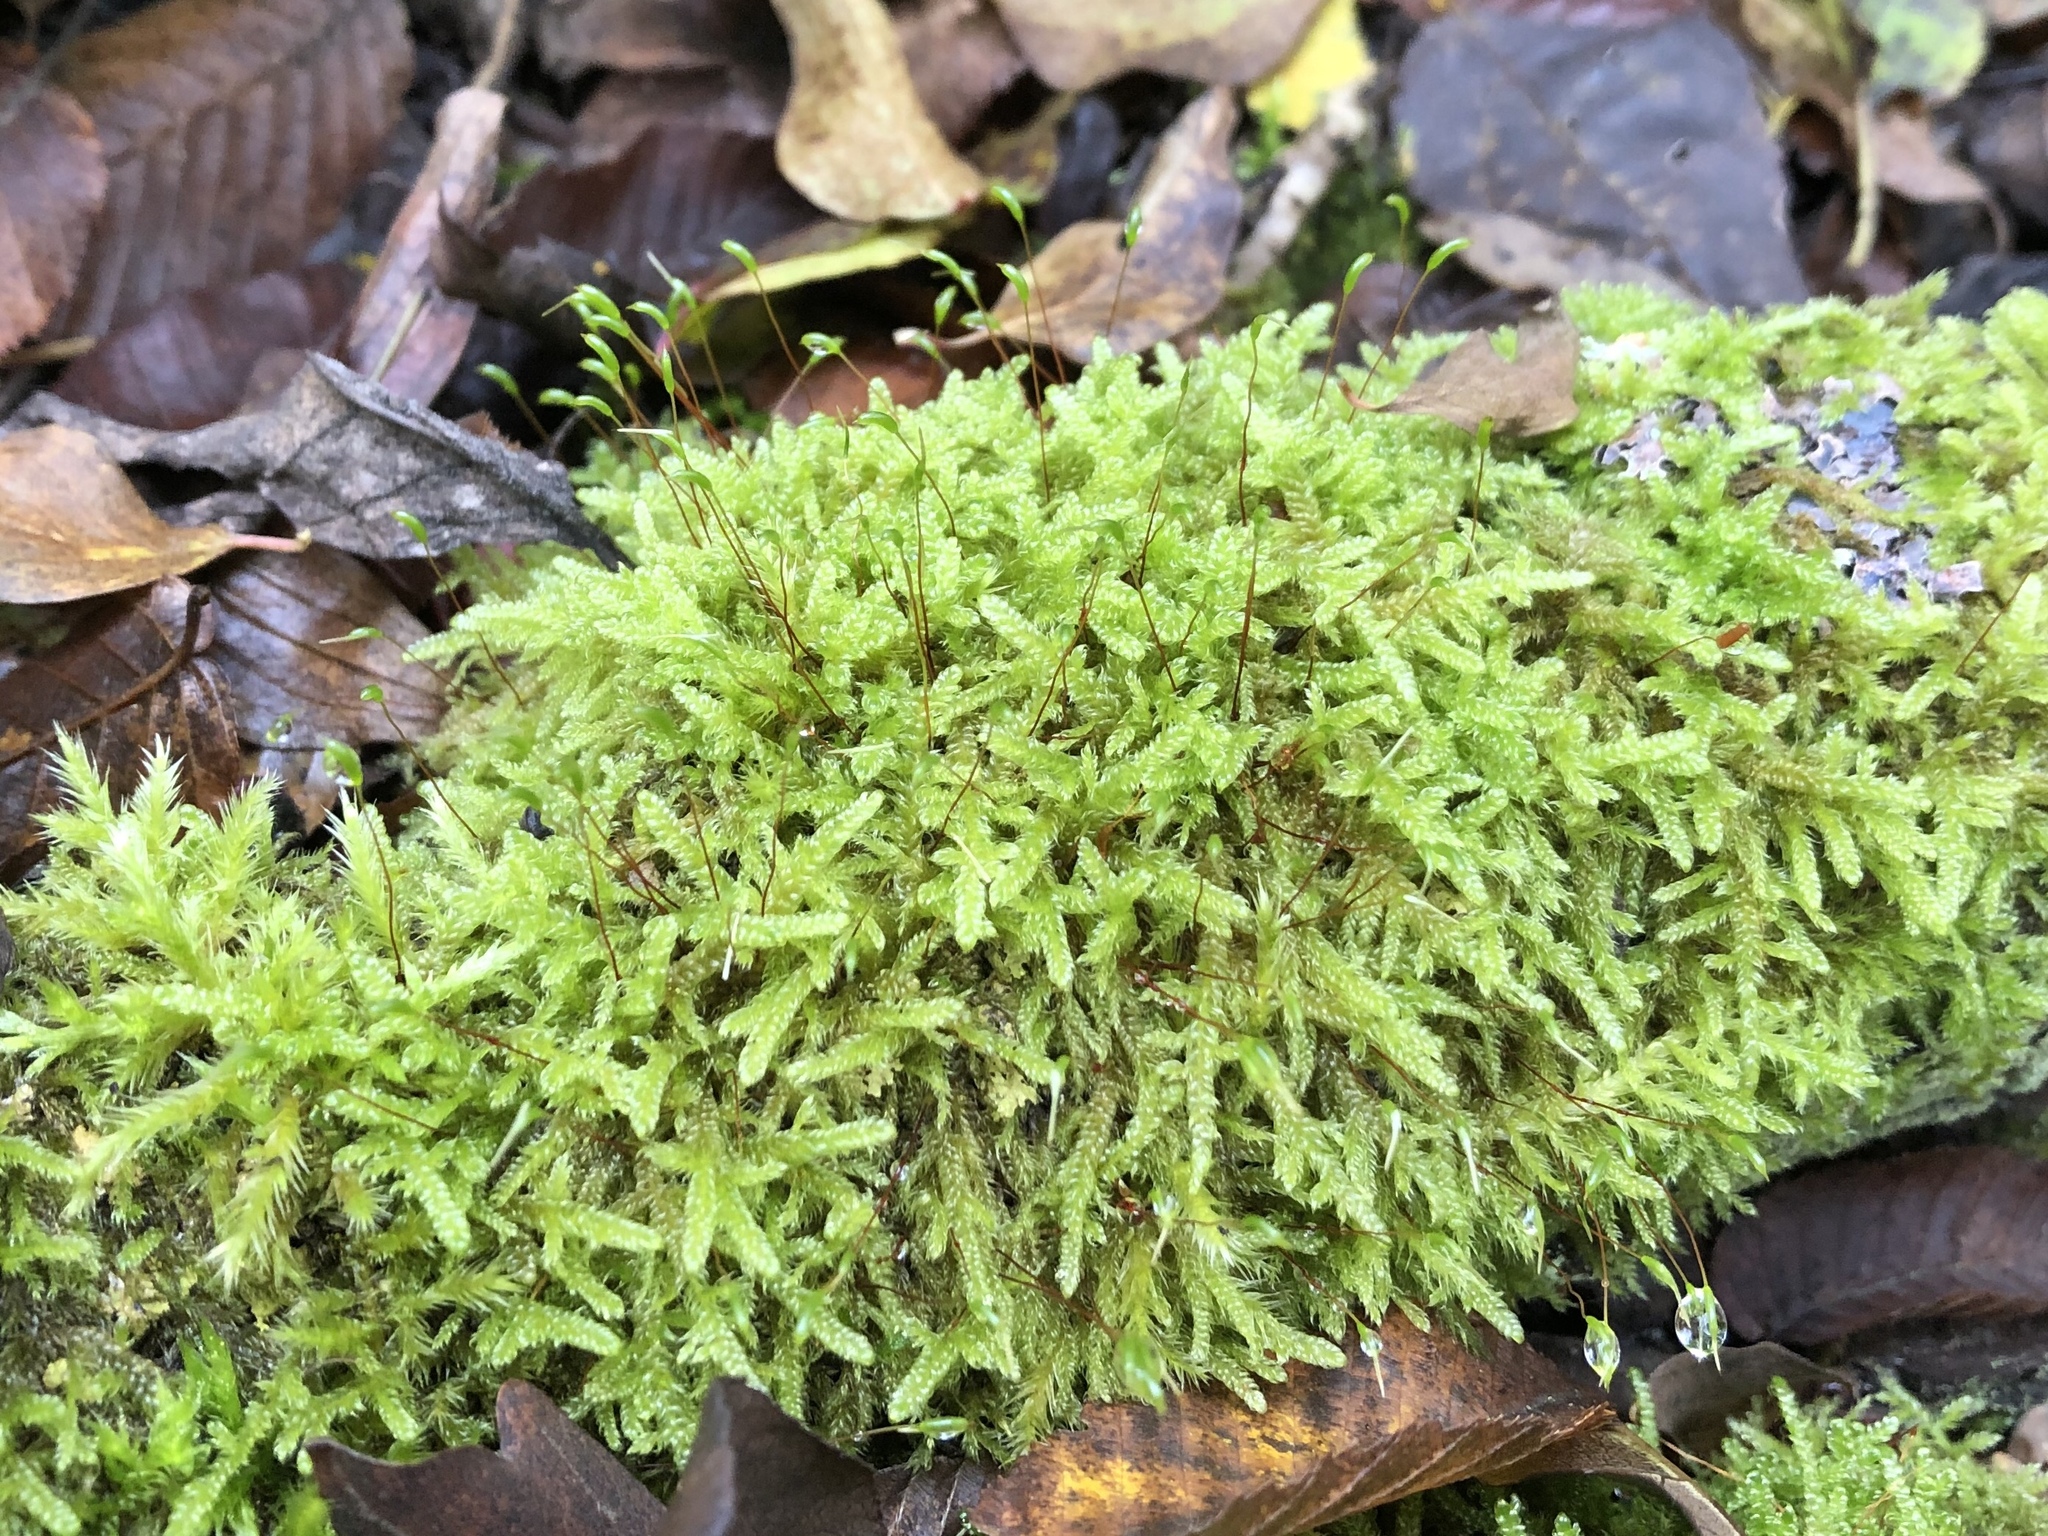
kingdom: Plantae
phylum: Bryophyta
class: Bryopsida
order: Hypnales
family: Hypnaceae
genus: Hypnum
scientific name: Hypnum cupressiforme
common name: Cypress-leaved plait-moss
